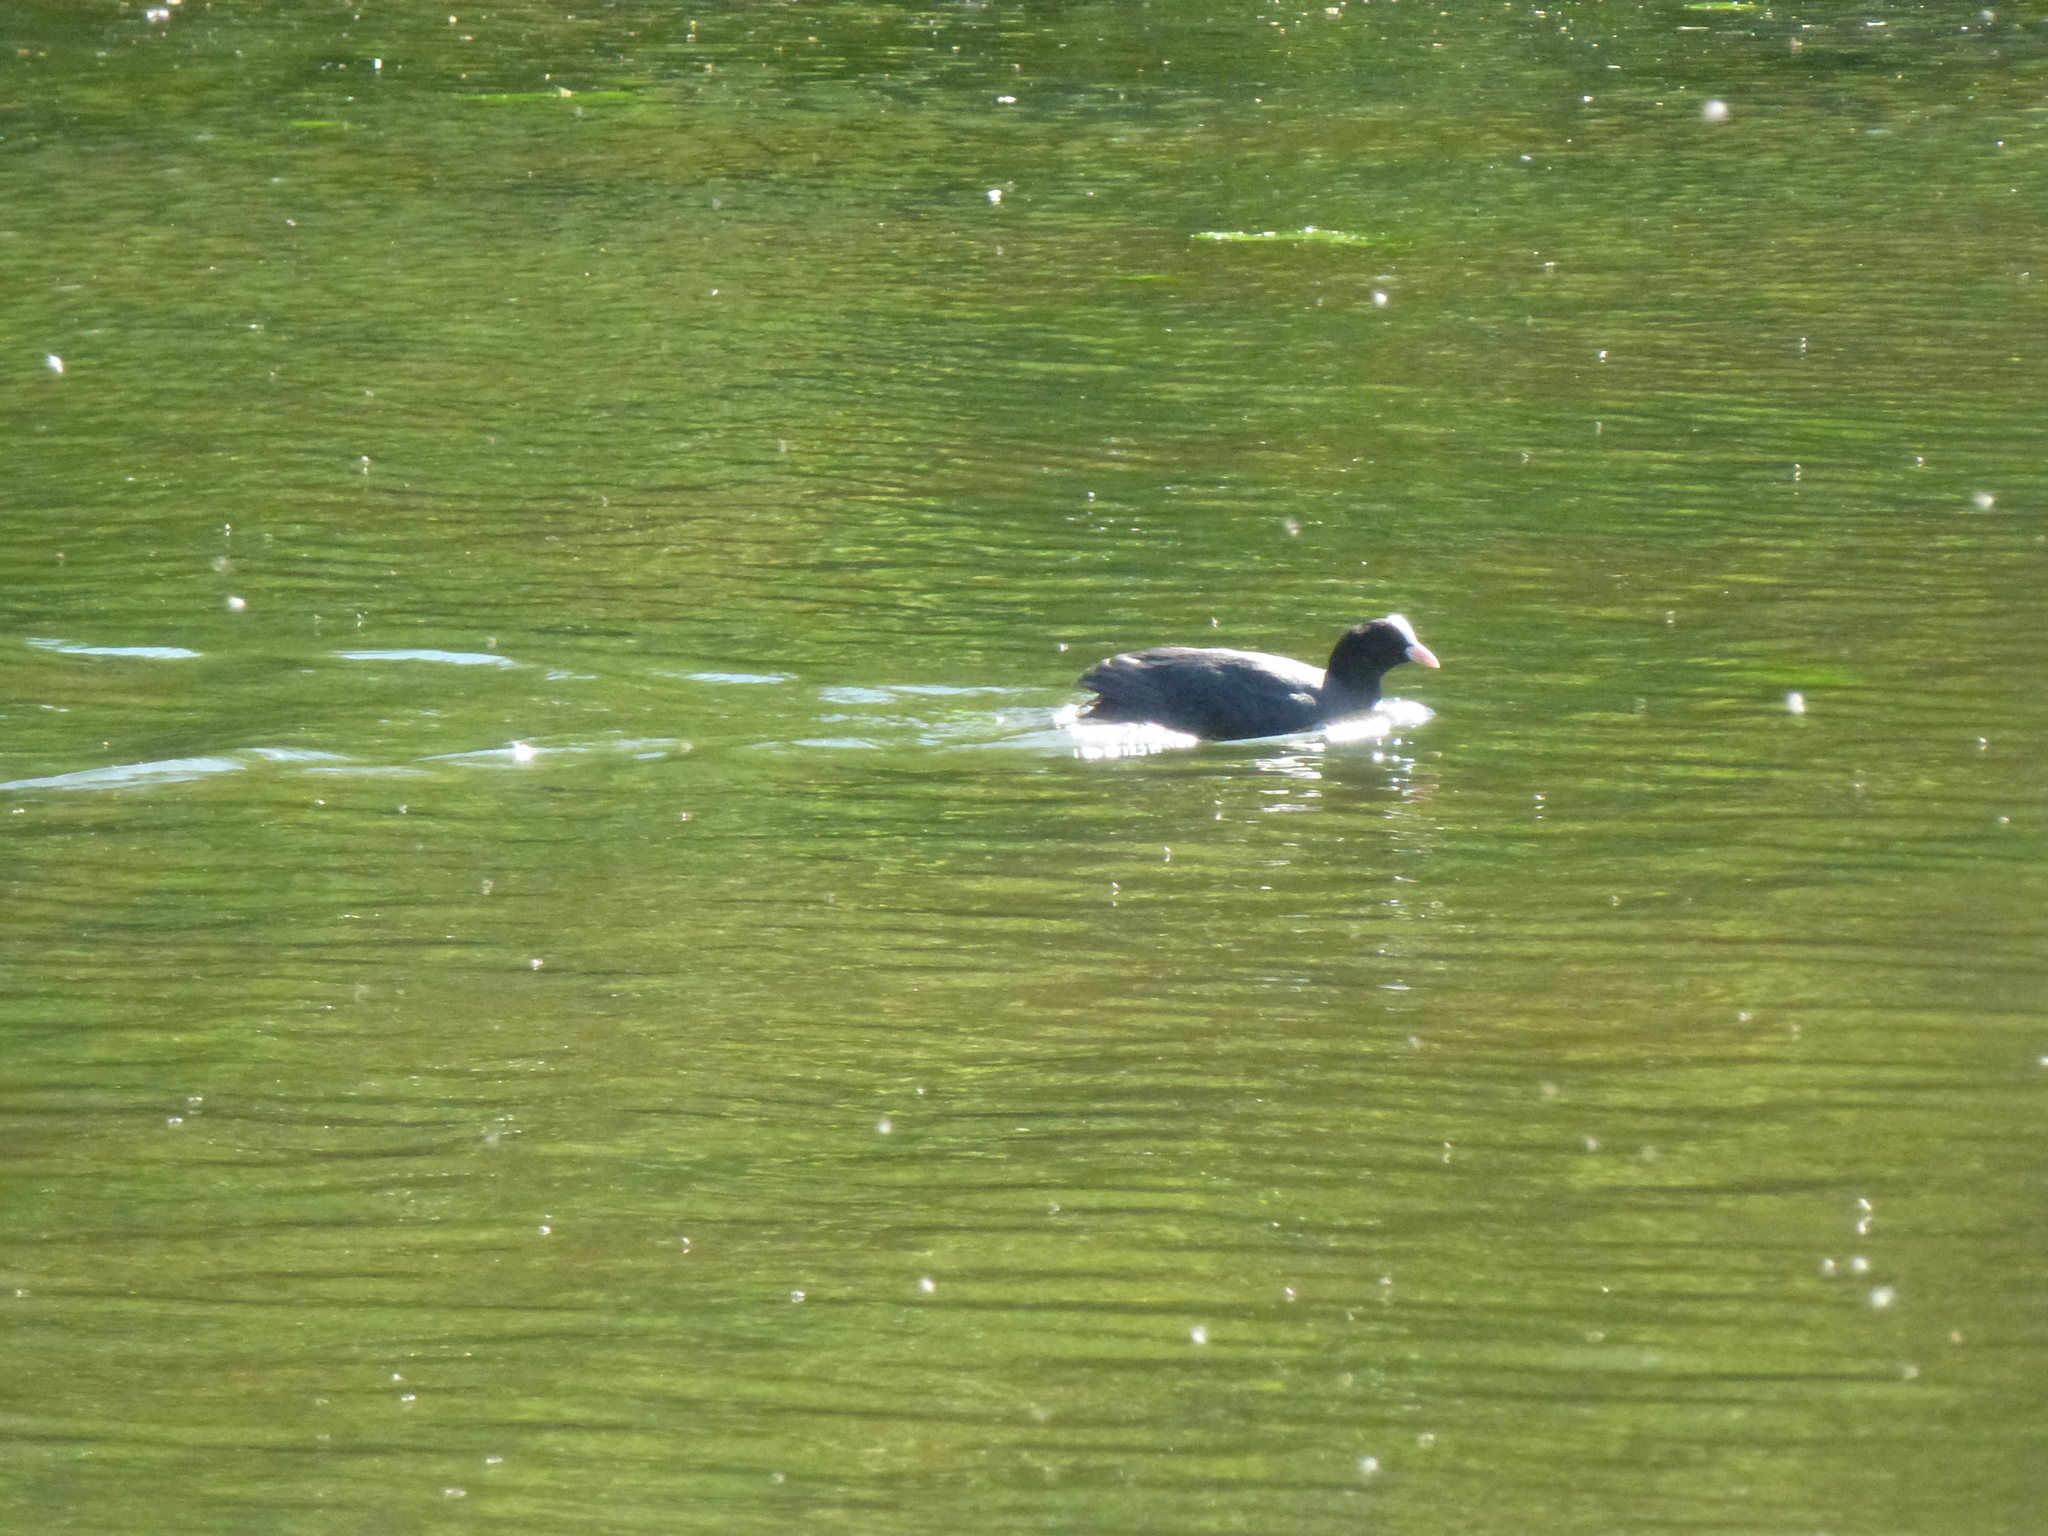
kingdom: Animalia
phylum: Chordata
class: Aves
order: Gruiformes
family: Rallidae
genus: Fulica
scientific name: Fulica atra
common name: Eurasian coot
